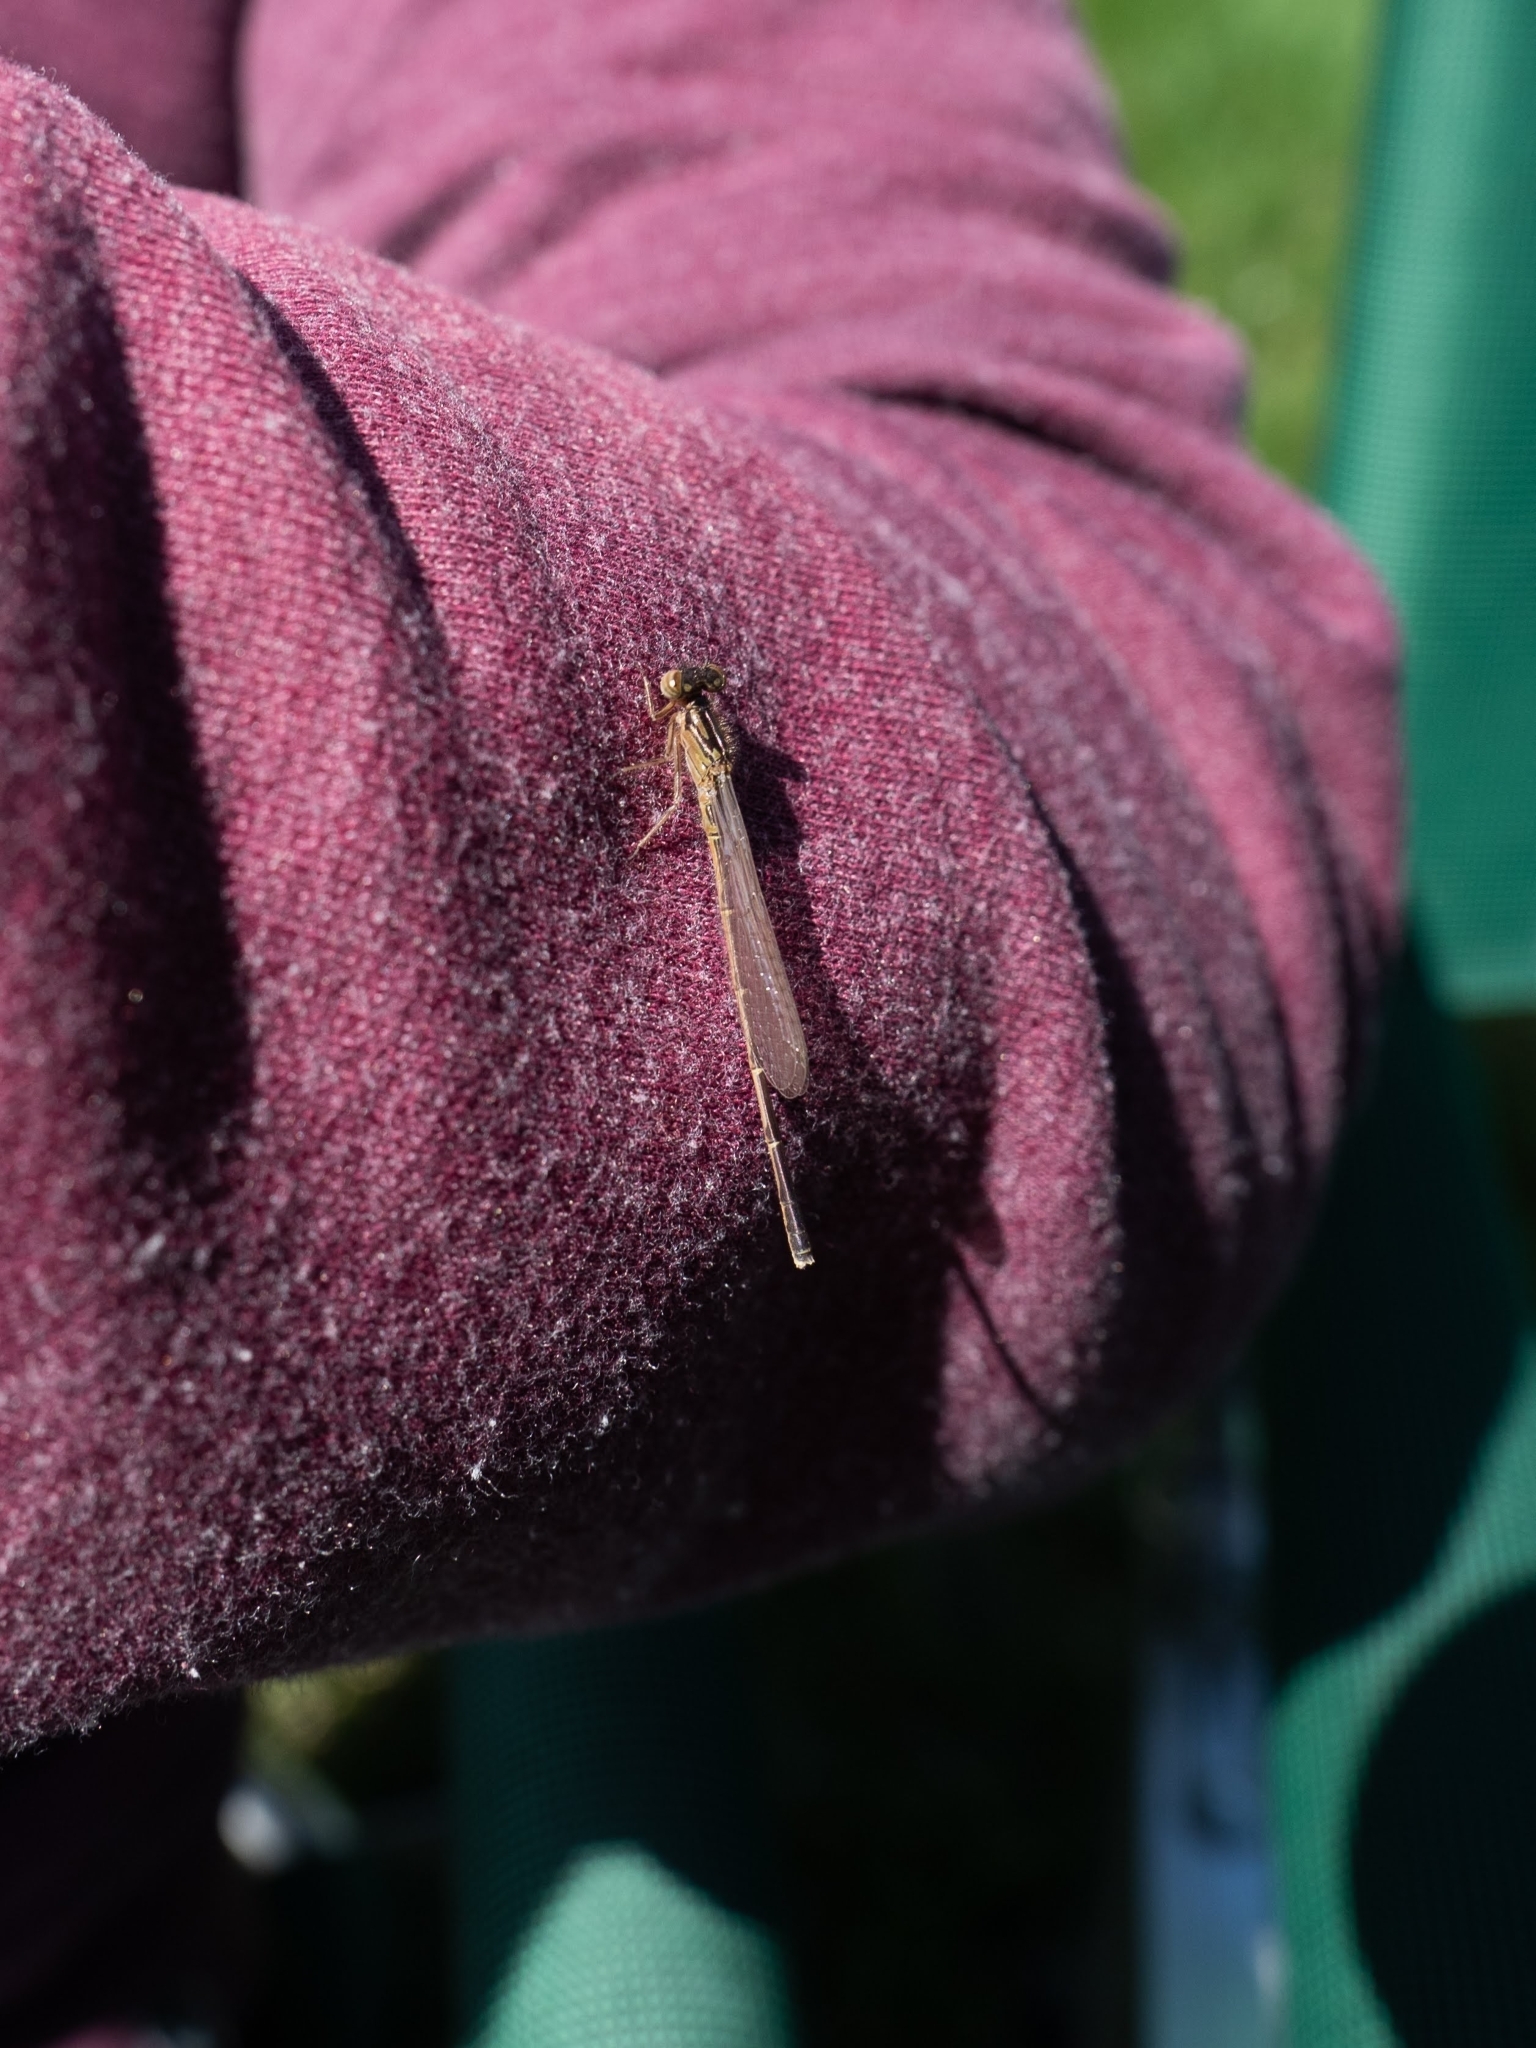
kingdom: Animalia
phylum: Arthropoda
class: Insecta
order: Odonata
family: Coenagrionidae
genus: Ischnura
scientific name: Ischnura posita
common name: Fragile forktail
